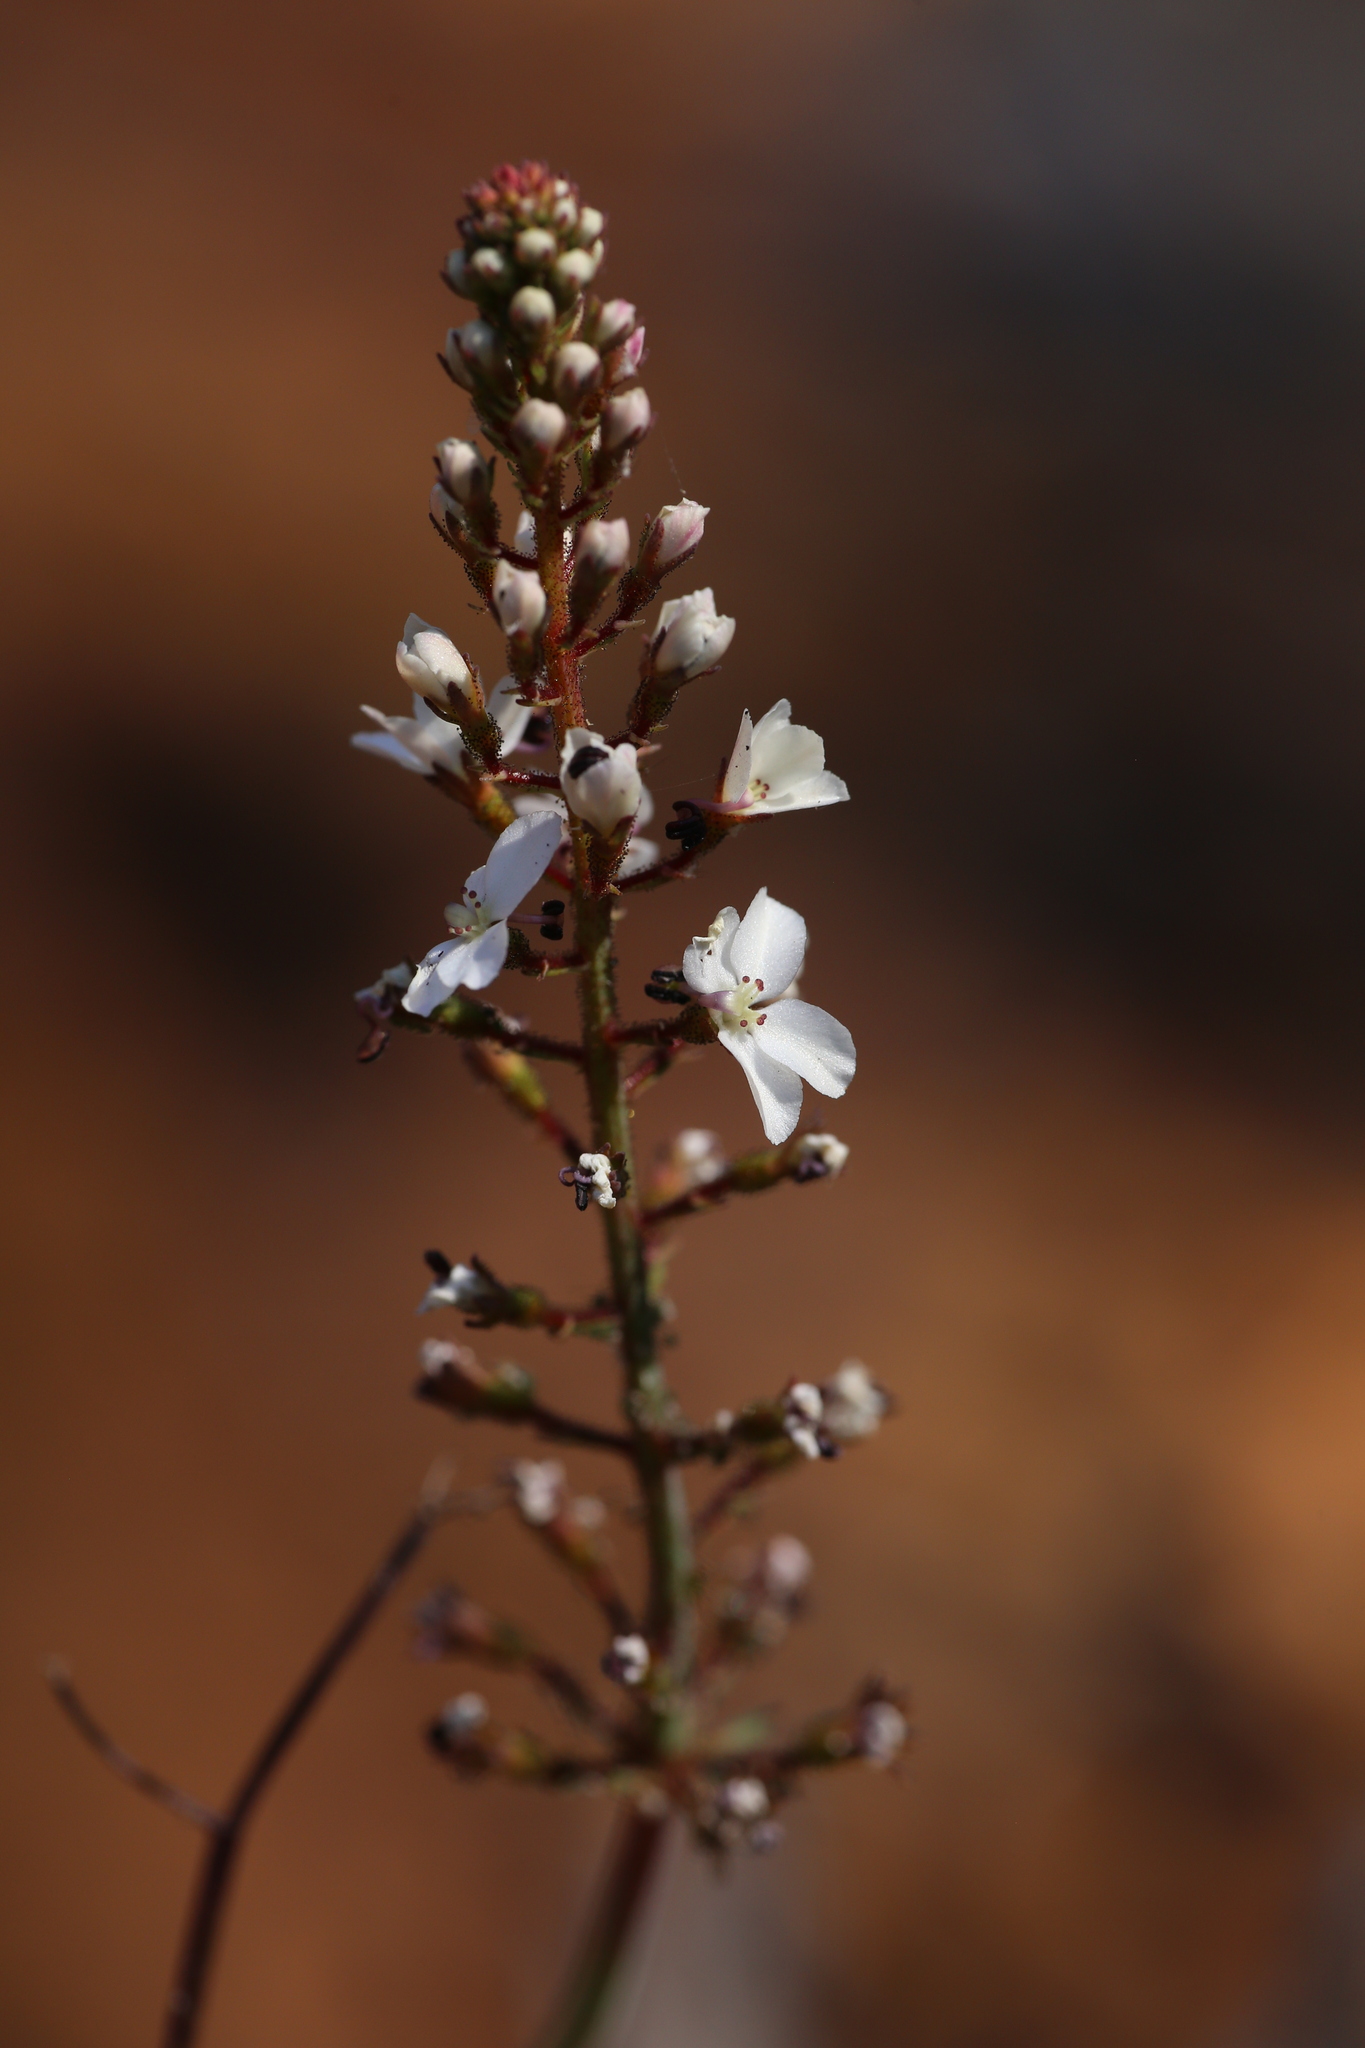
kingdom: Plantae
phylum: Tracheophyta
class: Magnoliopsida
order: Asterales
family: Stylidiaceae
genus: Stylidium
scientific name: Stylidium amoenum
